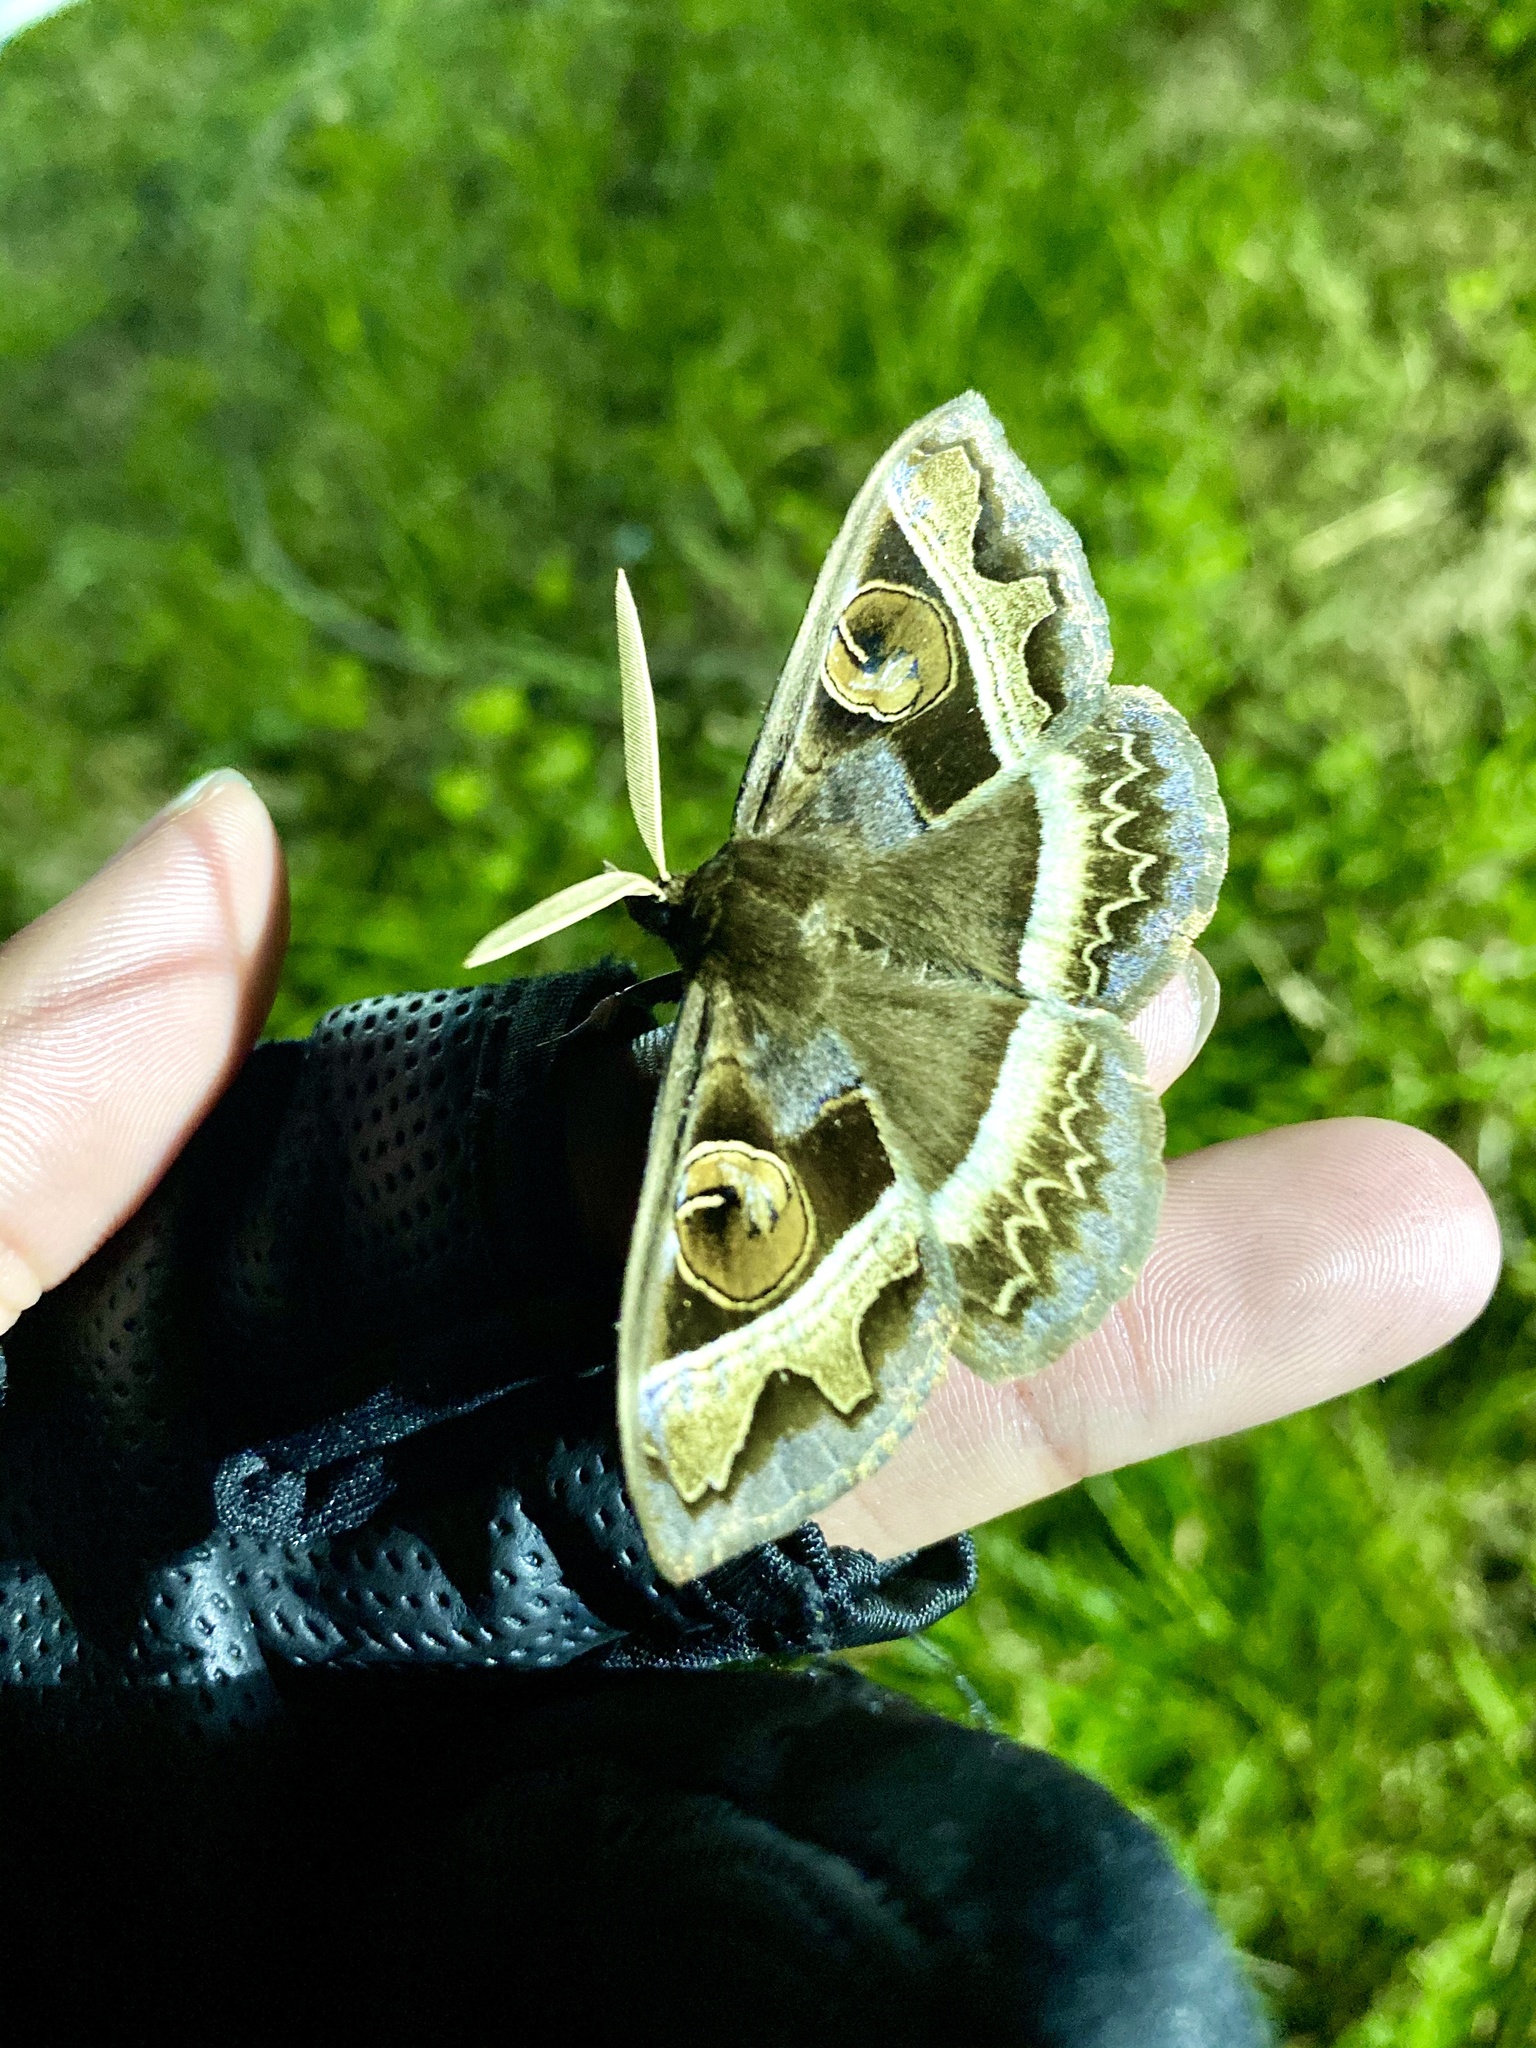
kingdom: Animalia
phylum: Arthropoda
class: Insecta
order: Lepidoptera
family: Erebidae
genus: Metopta
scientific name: Metopta rectifasciata
